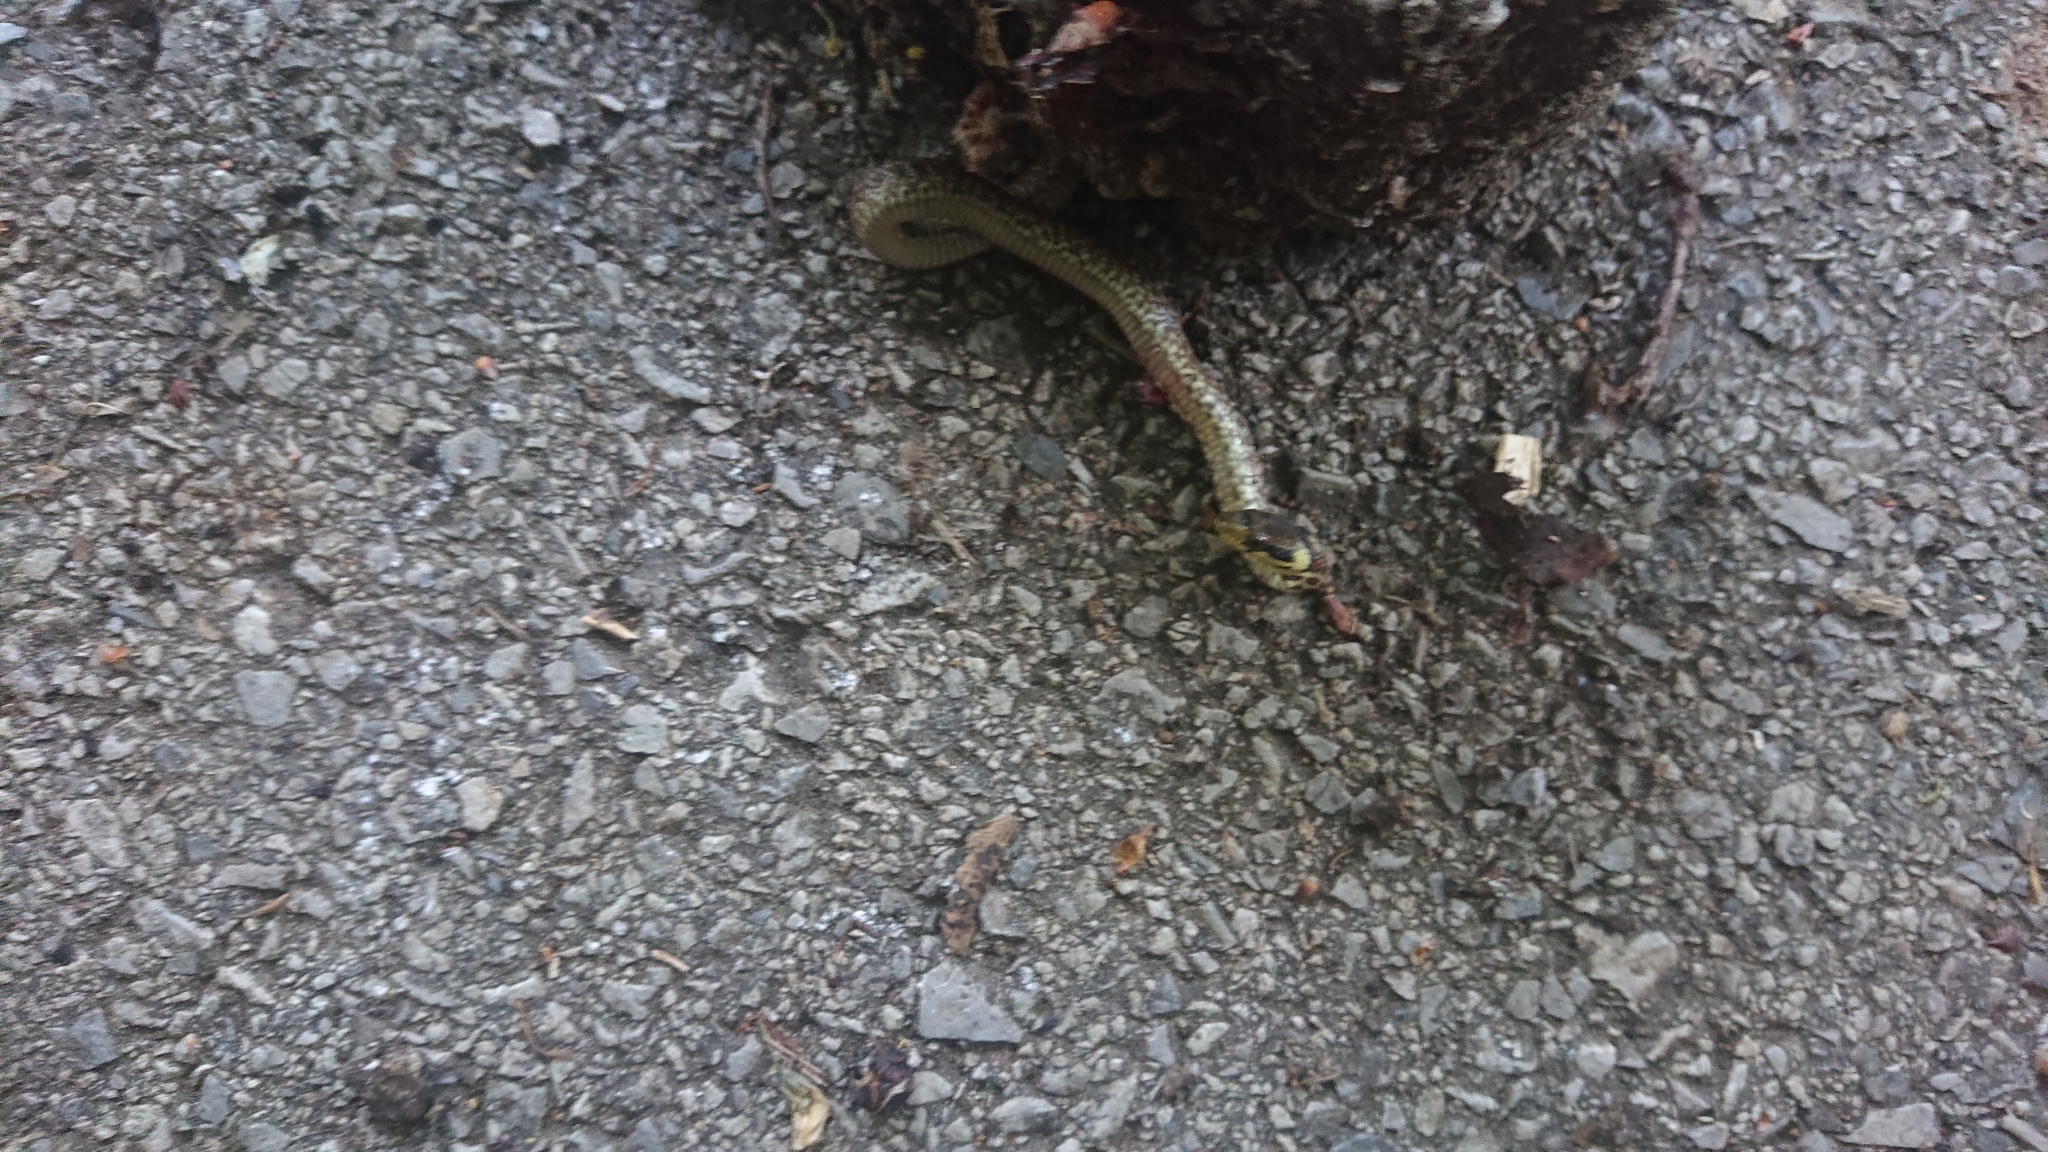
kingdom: Animalia
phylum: Chordata
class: Squamata
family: Colubridae
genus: Zamenis
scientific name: Zamenis longissimus
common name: Aesculapean snake
